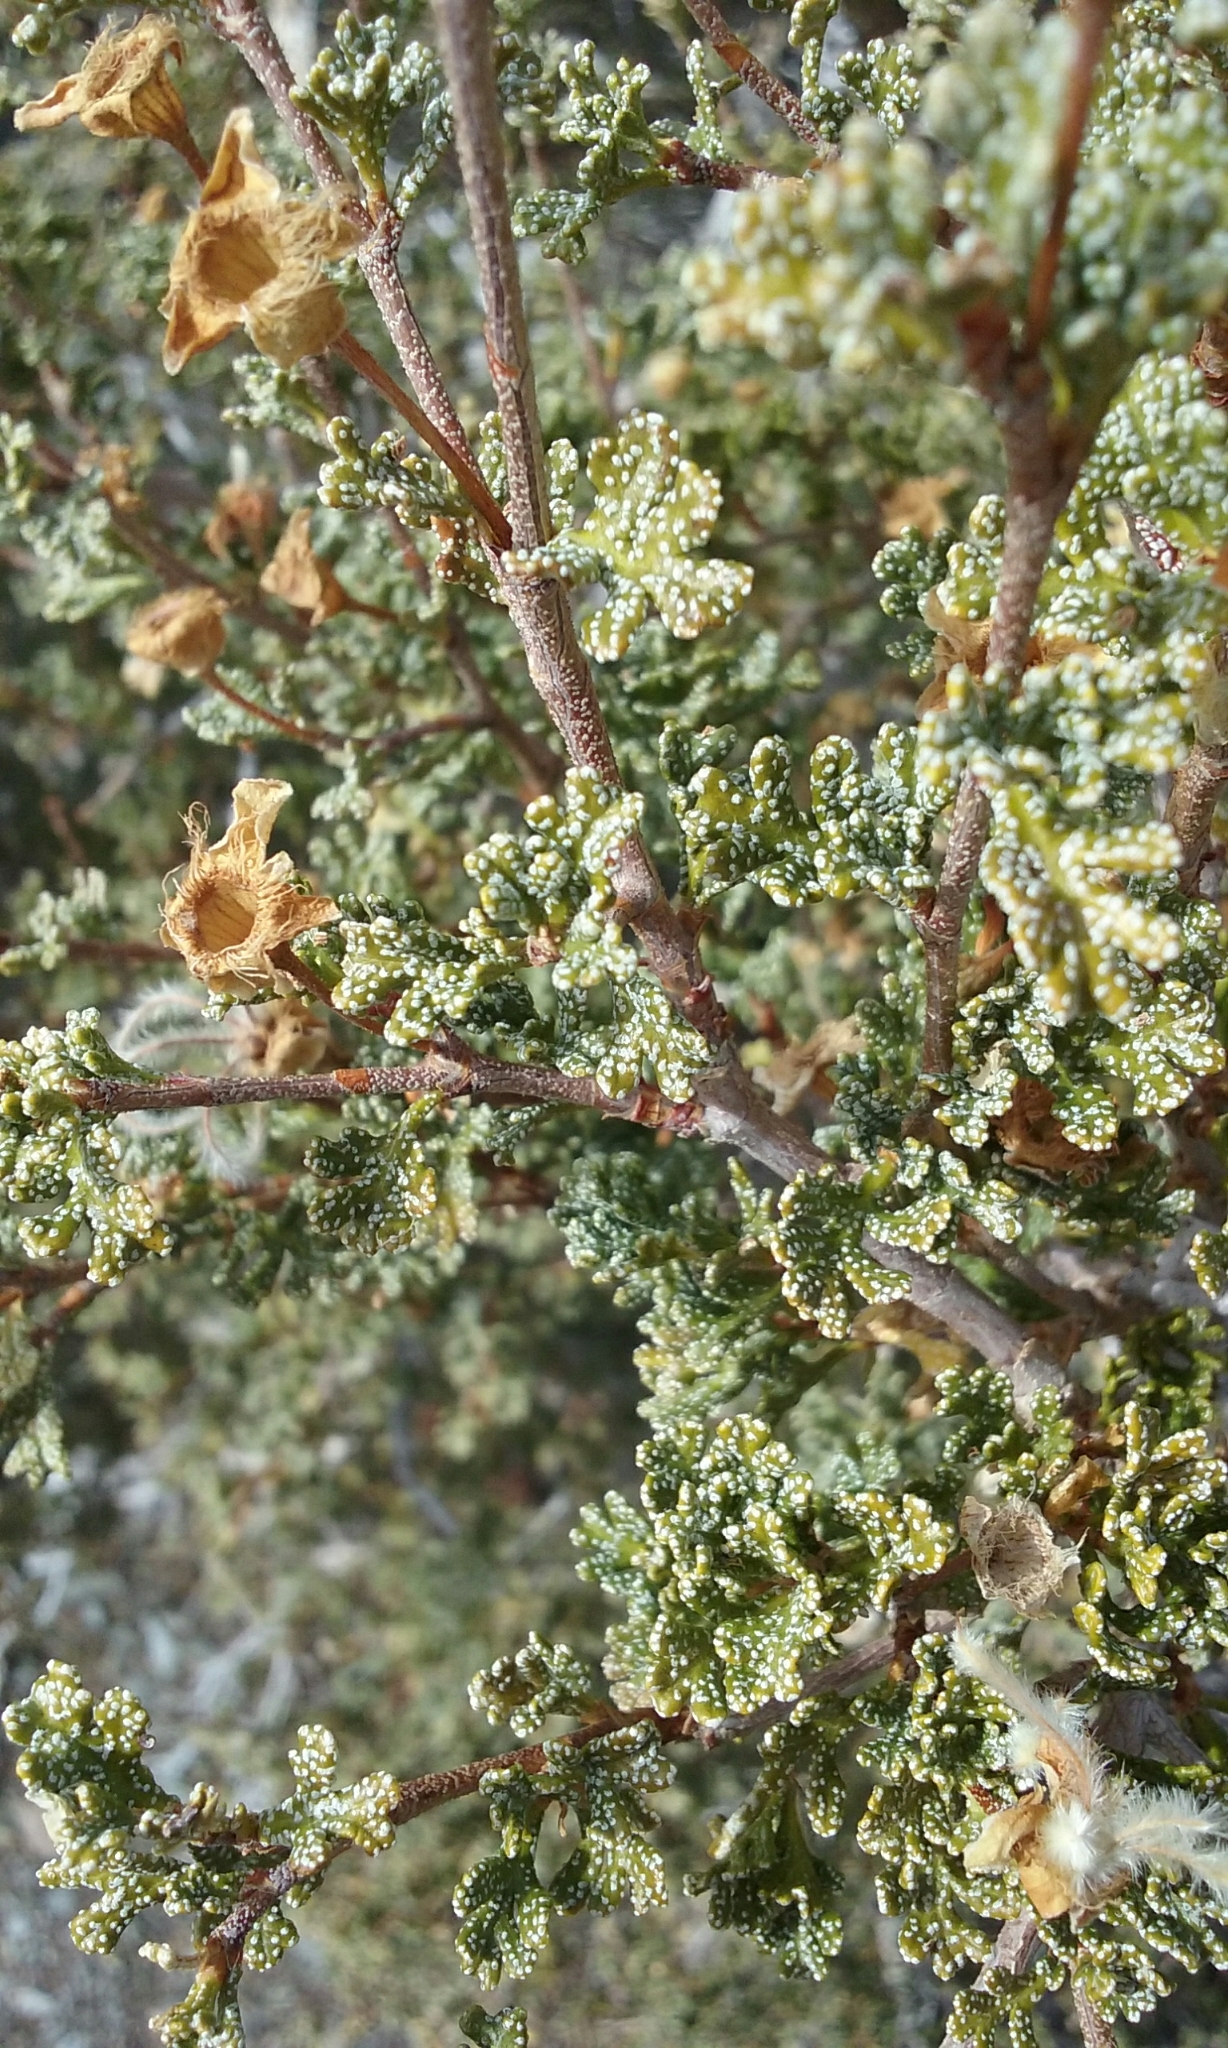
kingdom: Plantae
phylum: Tracheophyta
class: Magnoliopsida
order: Rosales
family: Rosaceae
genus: Purshia
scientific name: Purshia stansburiana
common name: Stansbury's cliffrose
